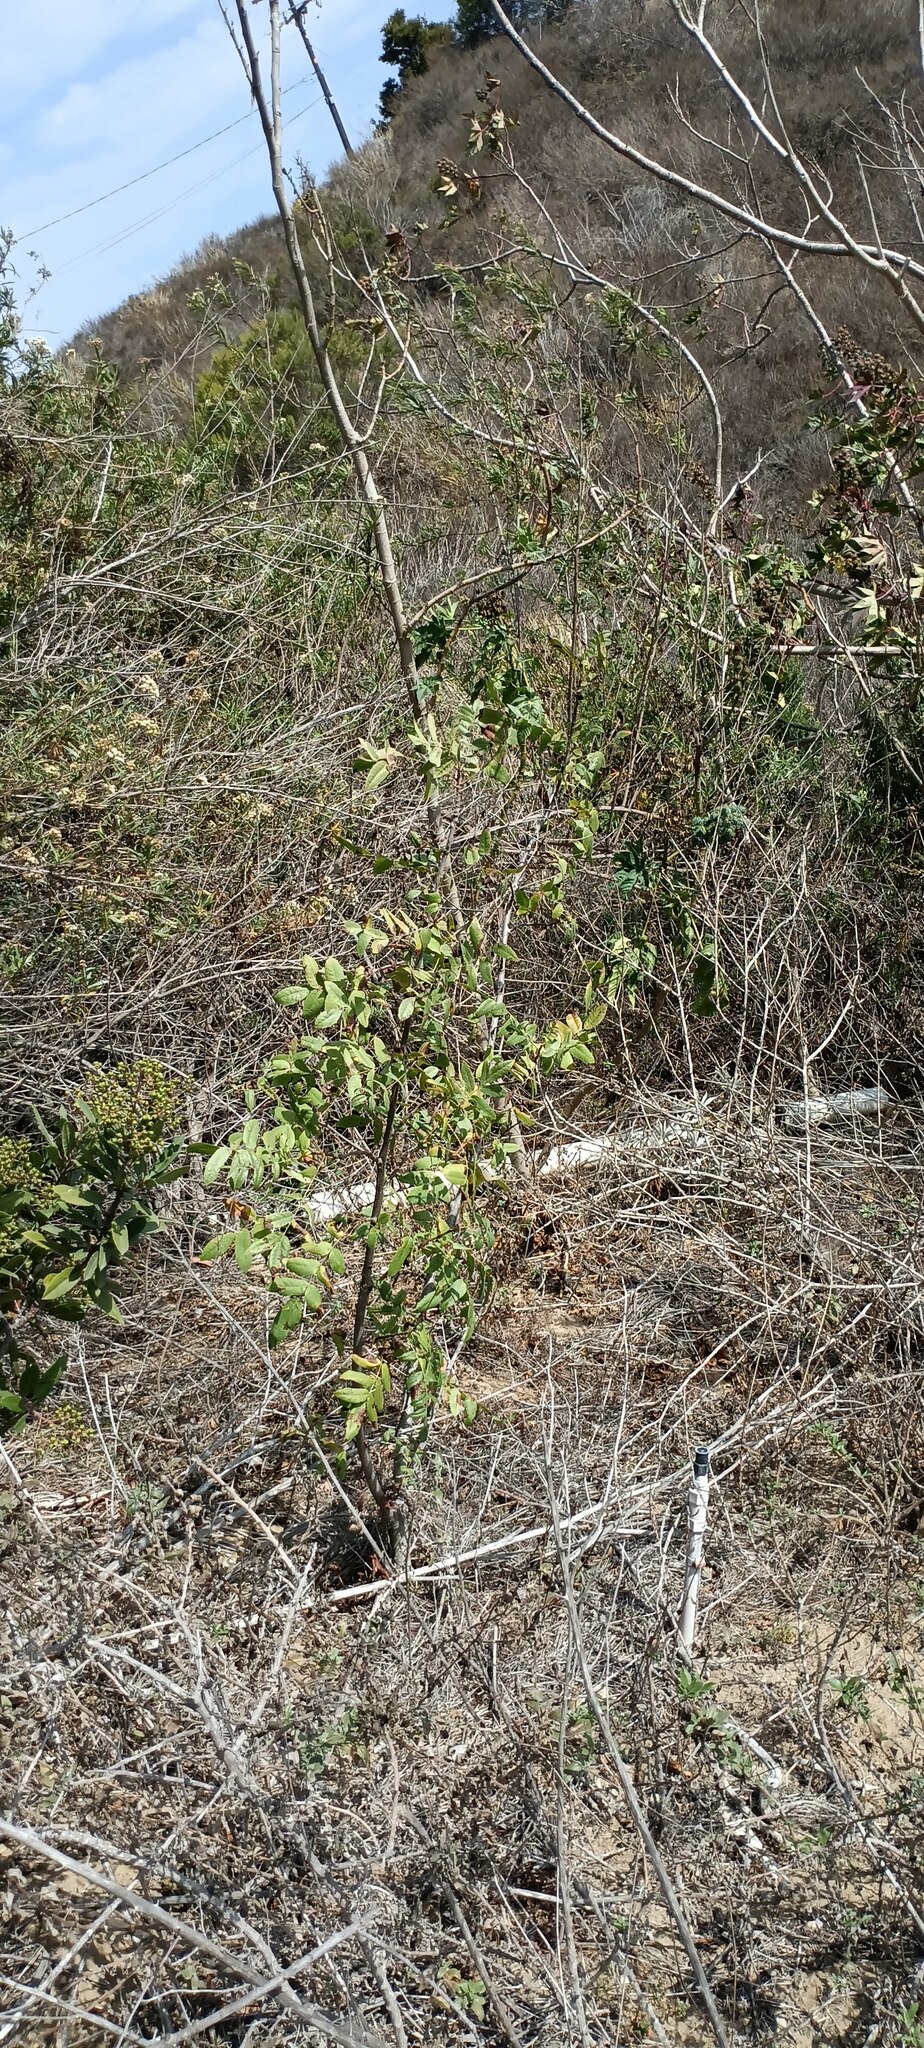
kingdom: Plantae
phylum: Tracheophyta
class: Magnoliopsida
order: Fagales
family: Juglandaceae
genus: Juglans
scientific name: Juglans californica
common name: Southern california black walnut
